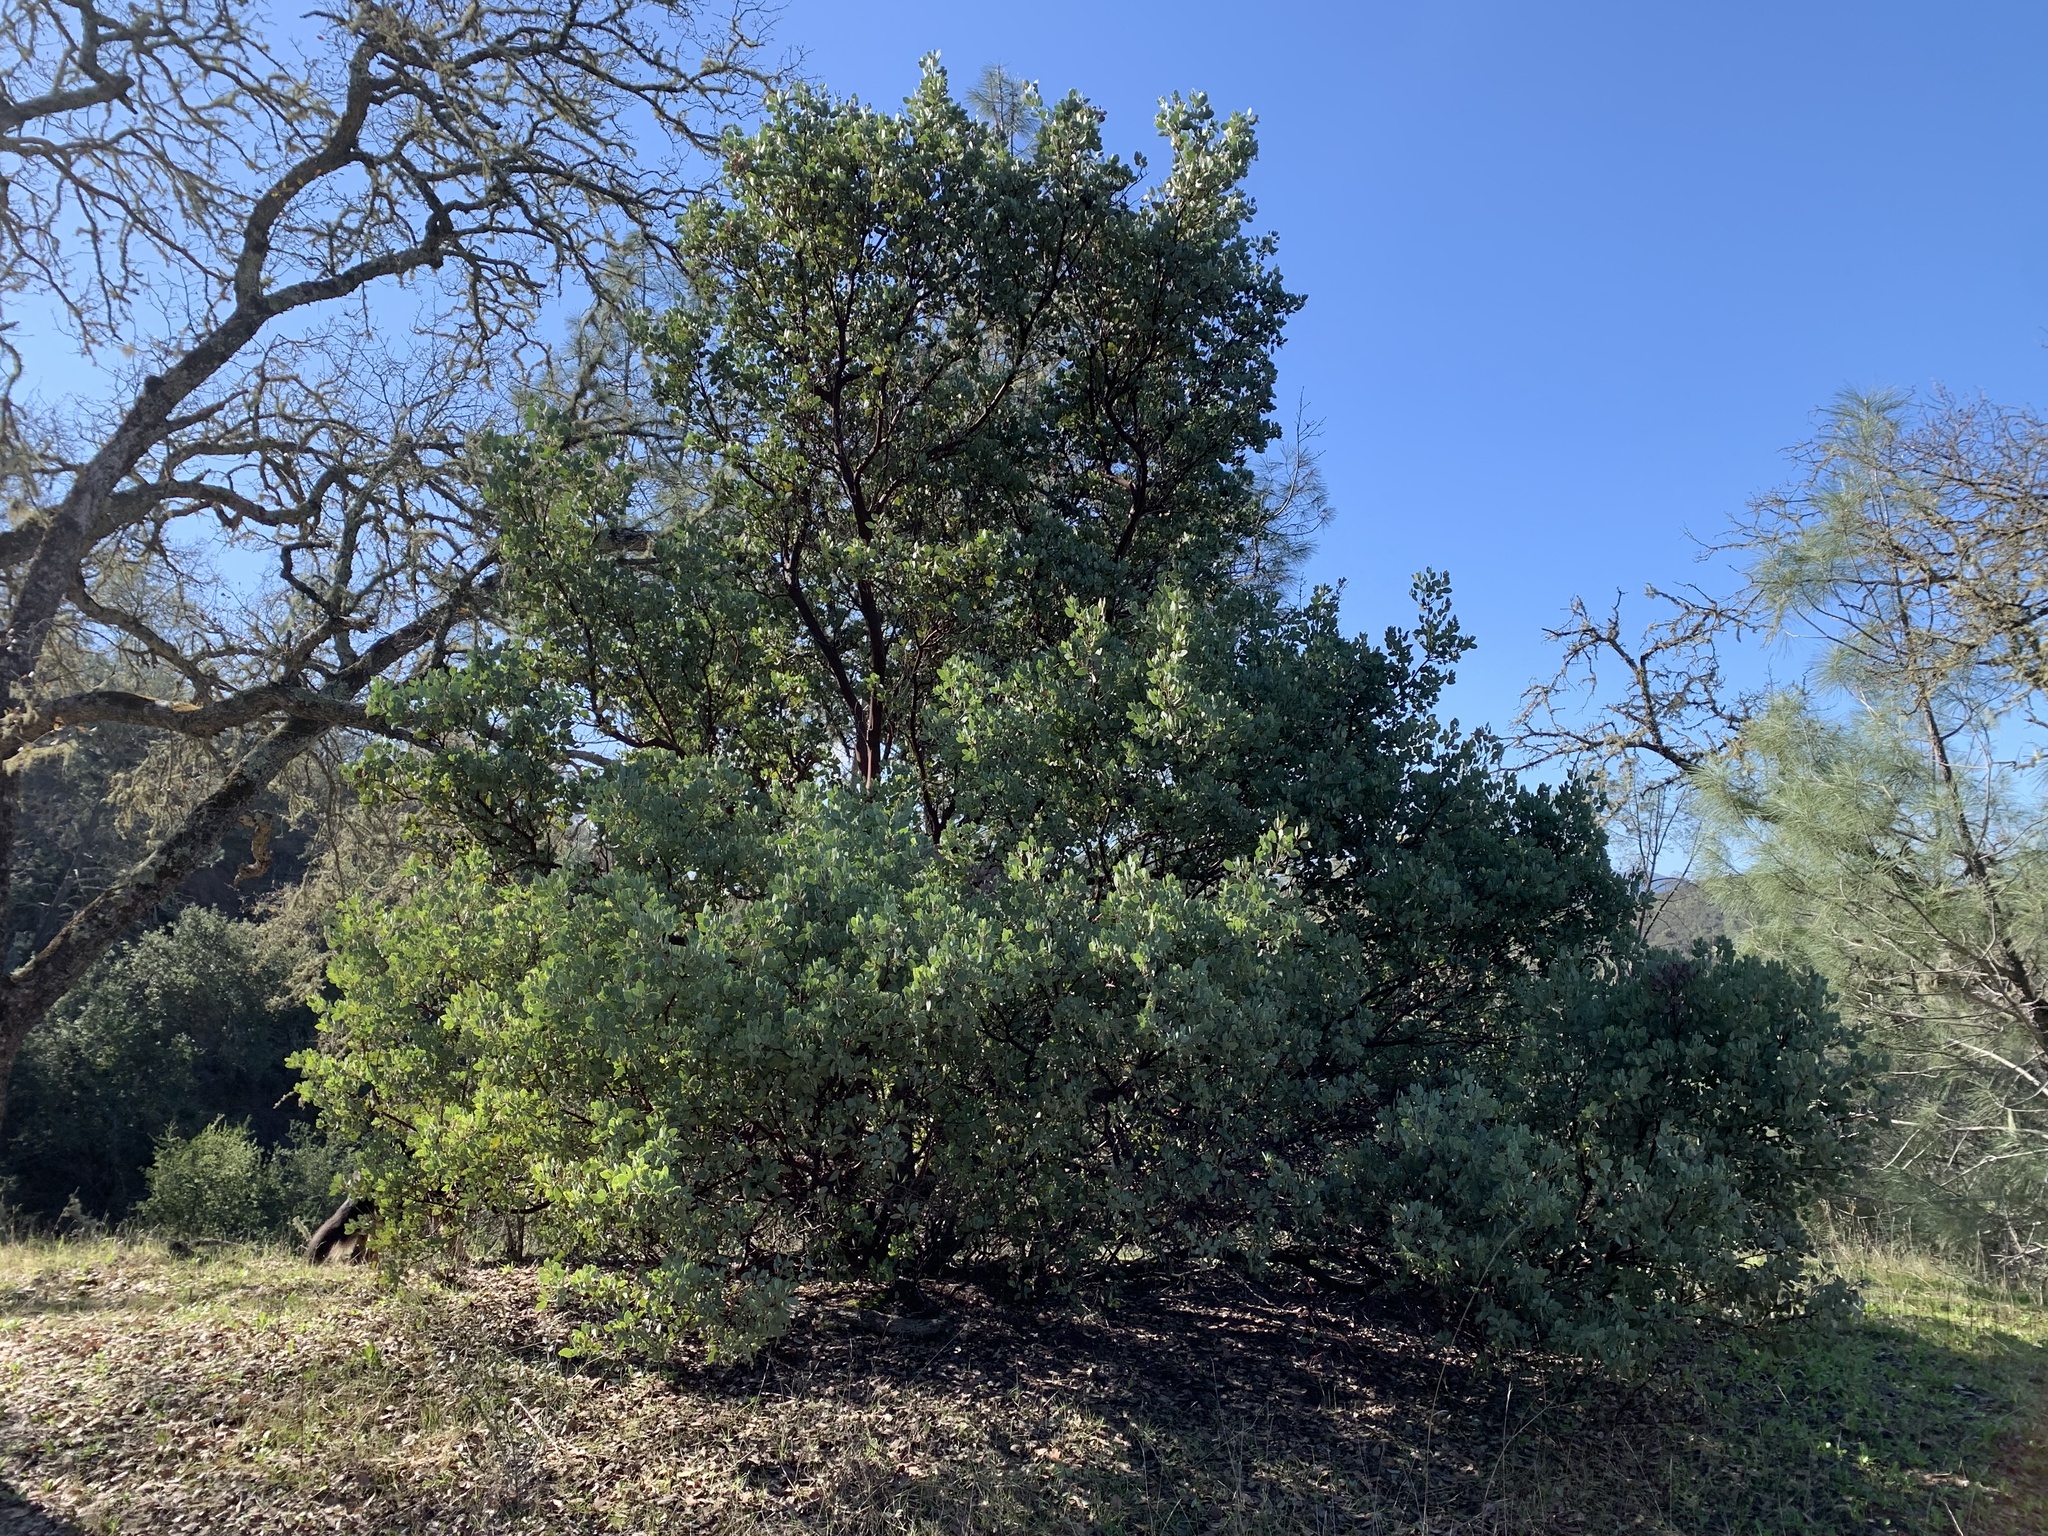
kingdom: Plantae
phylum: Tracheophyta
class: Magnoliopsida
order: Ericales
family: Ericaceae
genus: Arctostaphylos
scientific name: Arctostaphylos glauca
